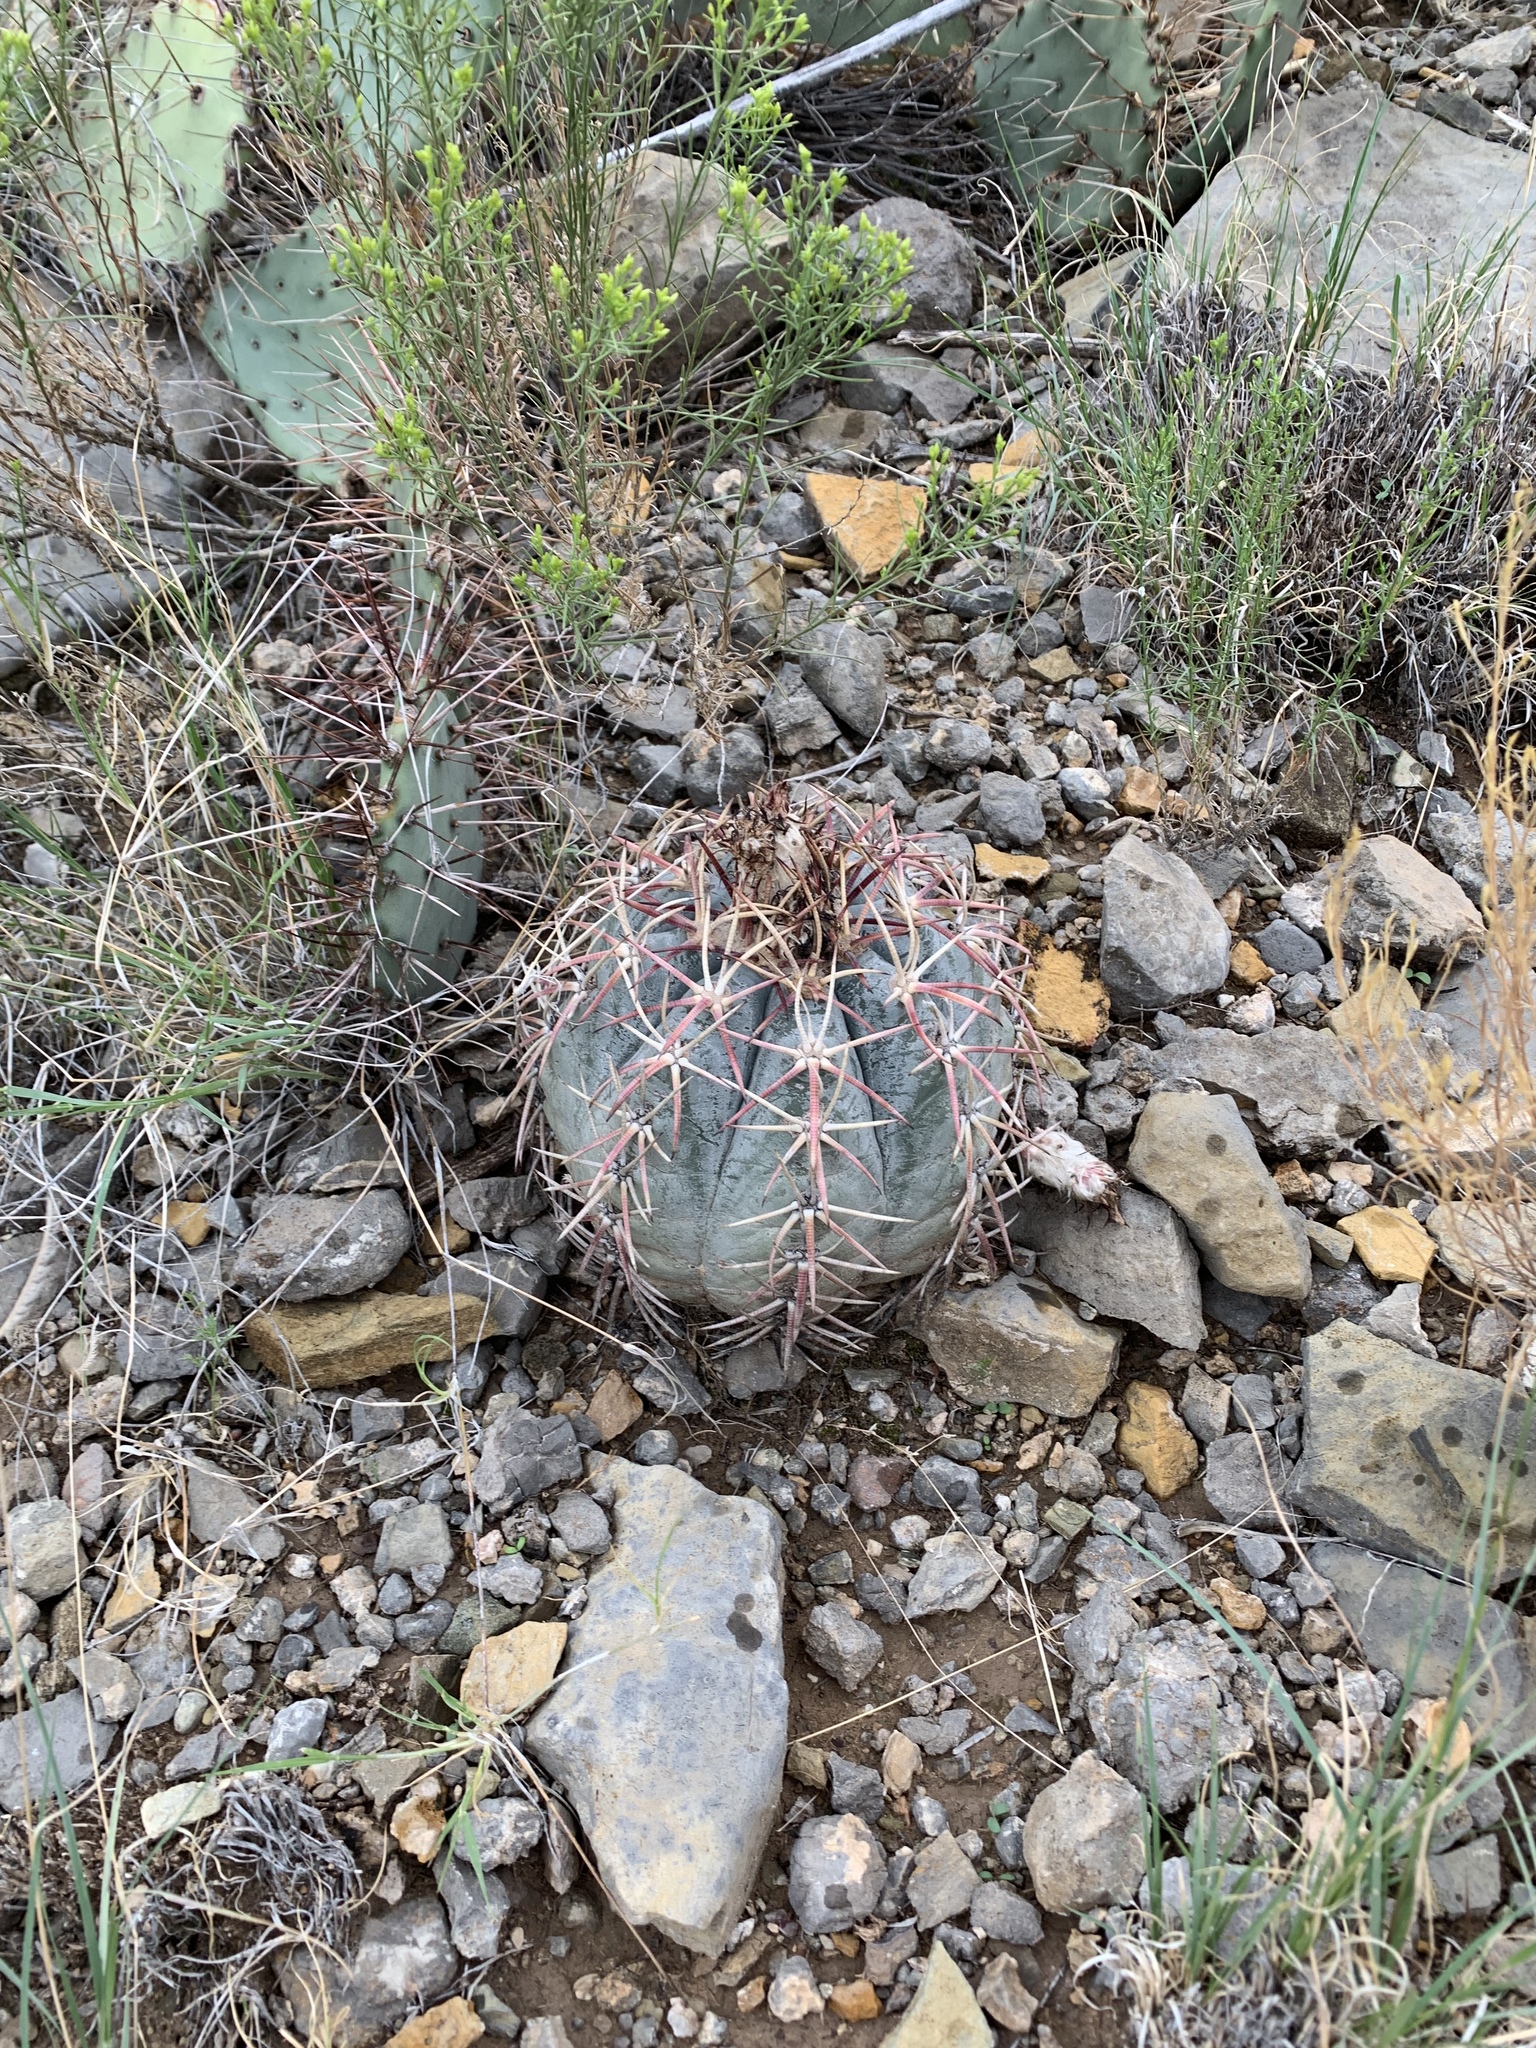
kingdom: Plantae
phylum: Tracheophyta
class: Magnoliopsida
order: Caryophyllales
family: Cactaceae
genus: Echinocactus
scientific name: Echinocactus horizonthalonius
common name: Devilshead
